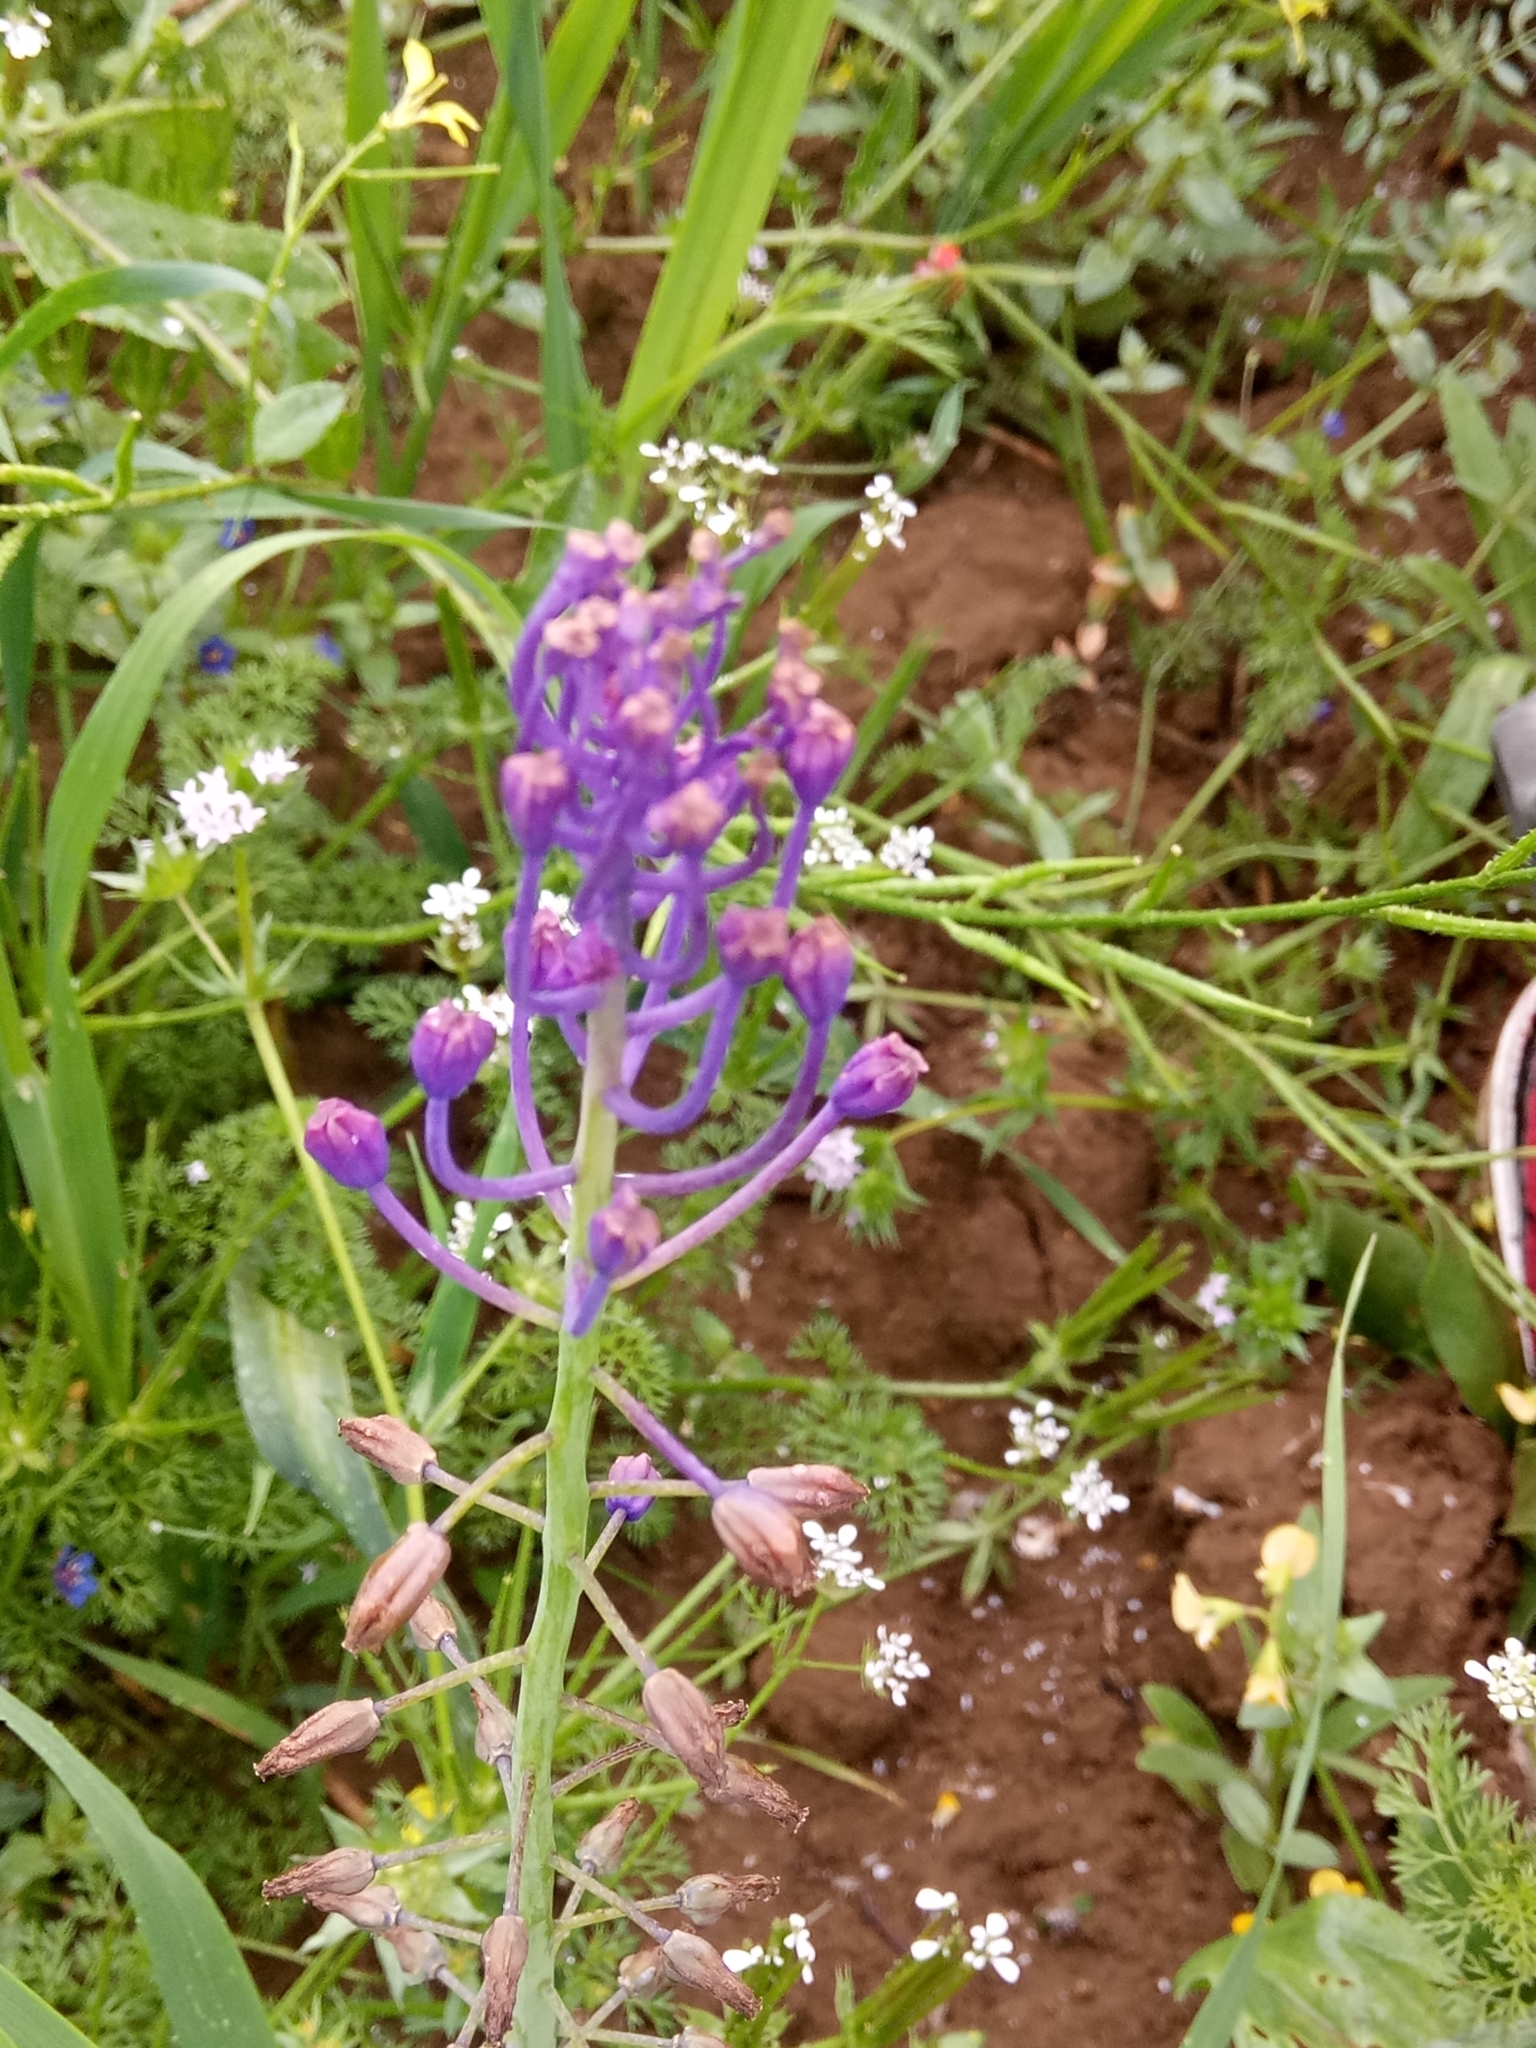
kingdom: Plantae
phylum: Tracheophyta
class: Liliopsida
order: Asparagales
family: Asparagaceae
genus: Muscari
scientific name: Muscari comosum
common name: Tassel hyacinth
